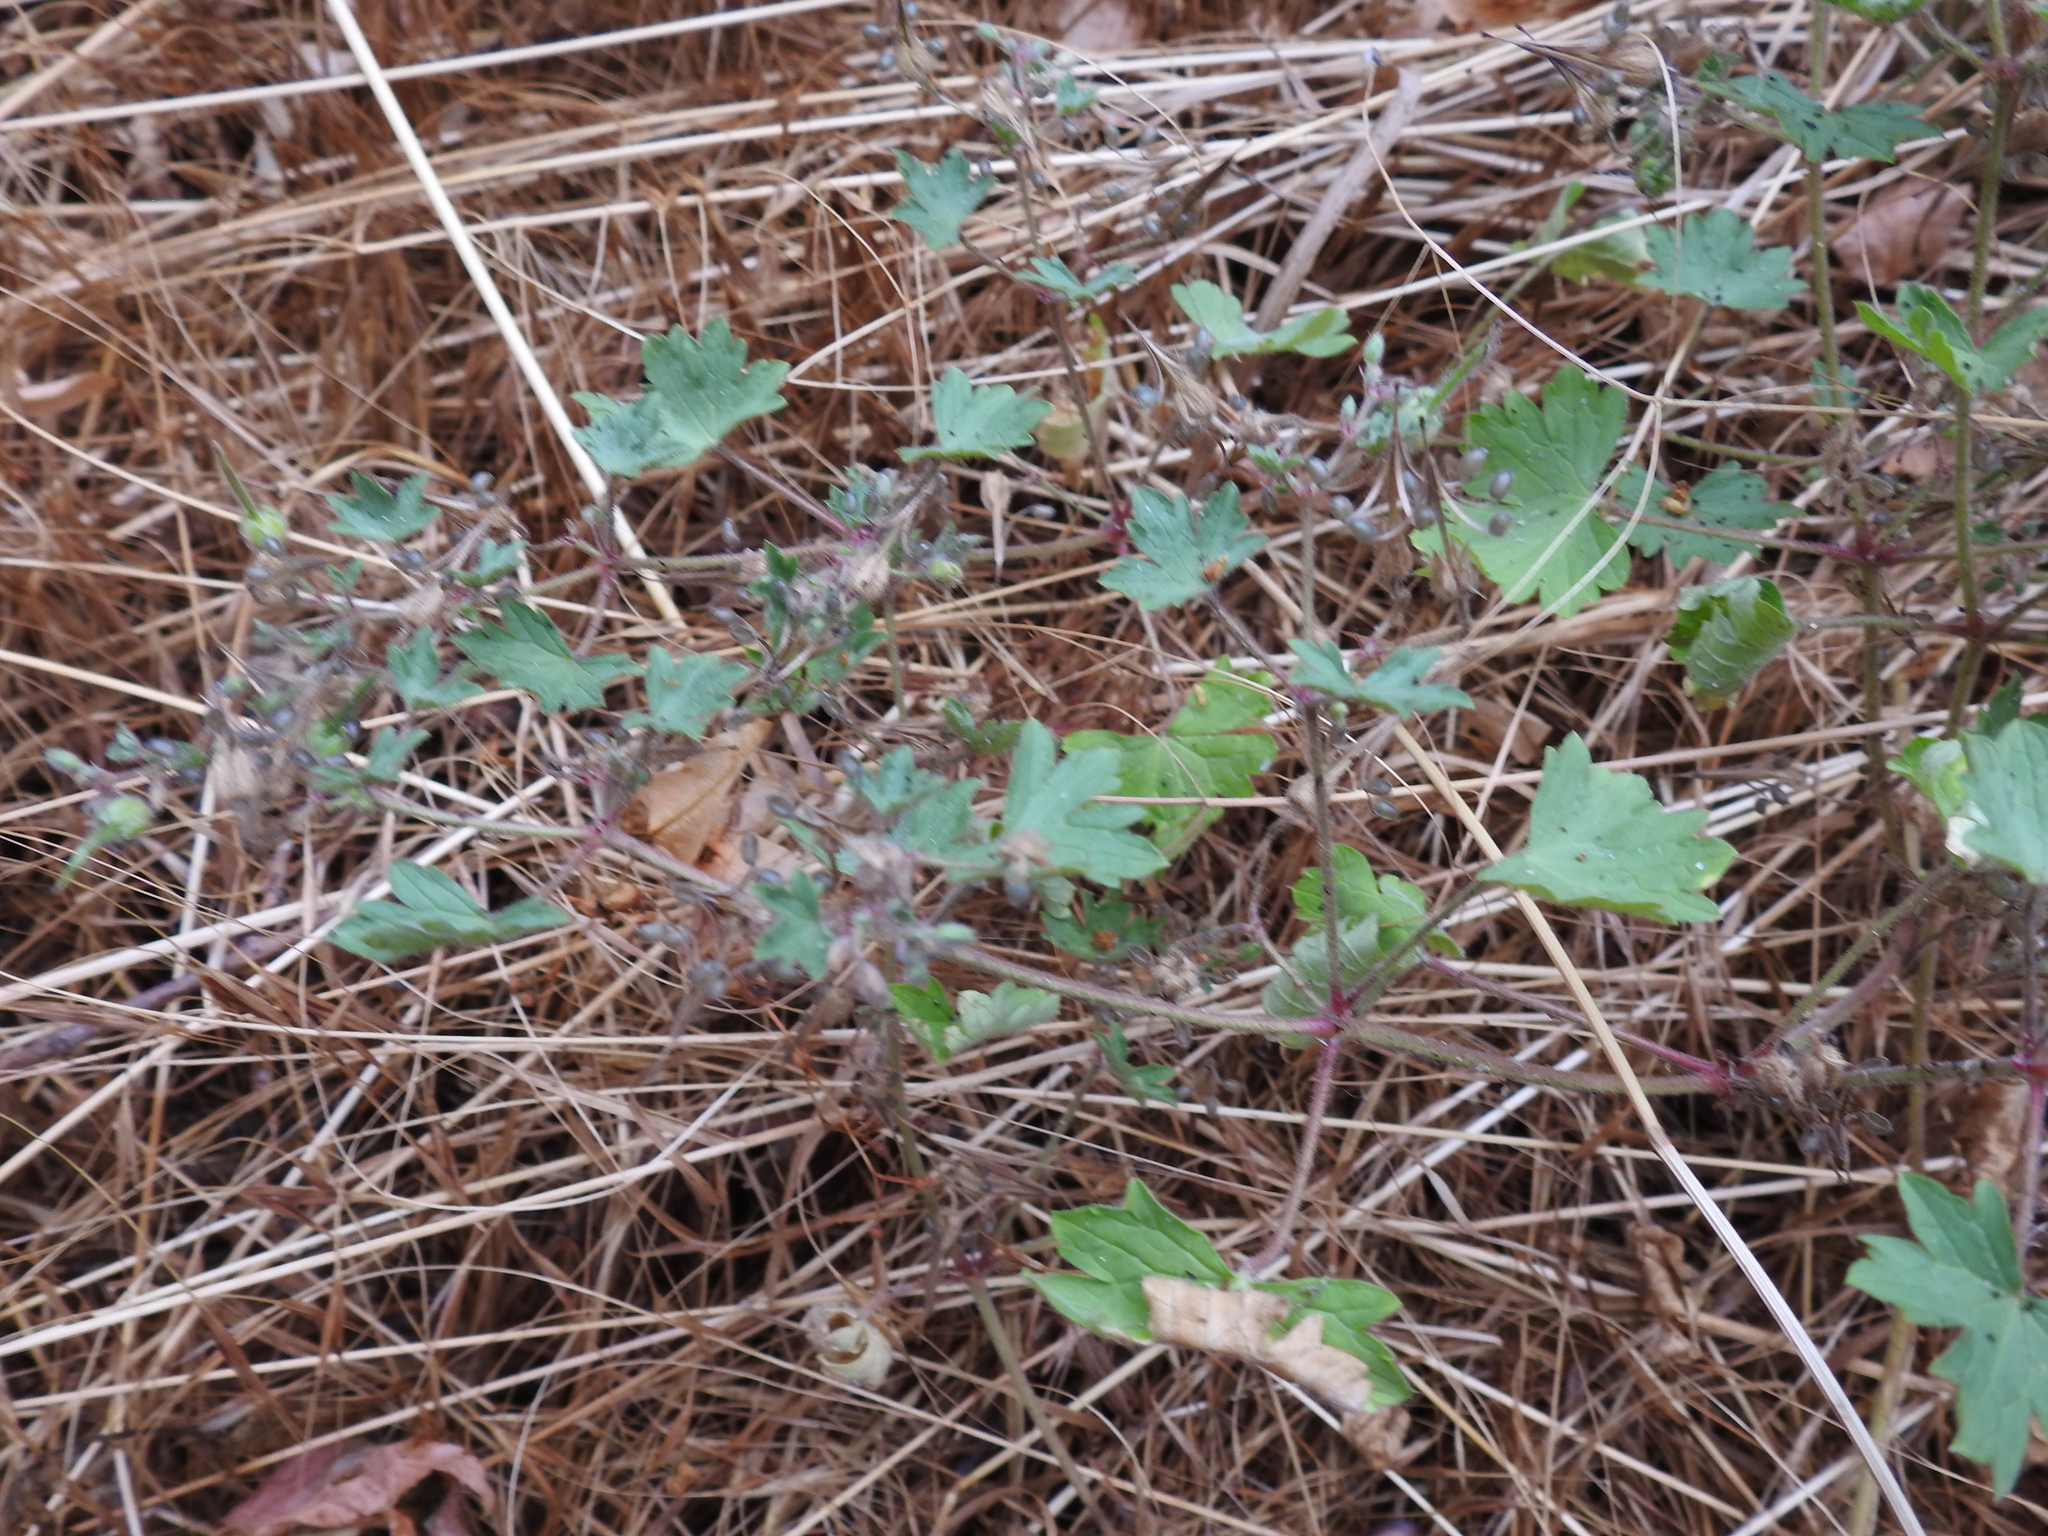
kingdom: Plantae
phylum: Tracheophyta
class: Magnoliopsida
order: Geraniales
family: Geraniaceae
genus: Geranium
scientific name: Geranium rotundifolium
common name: Round-leaved crane's-bill
